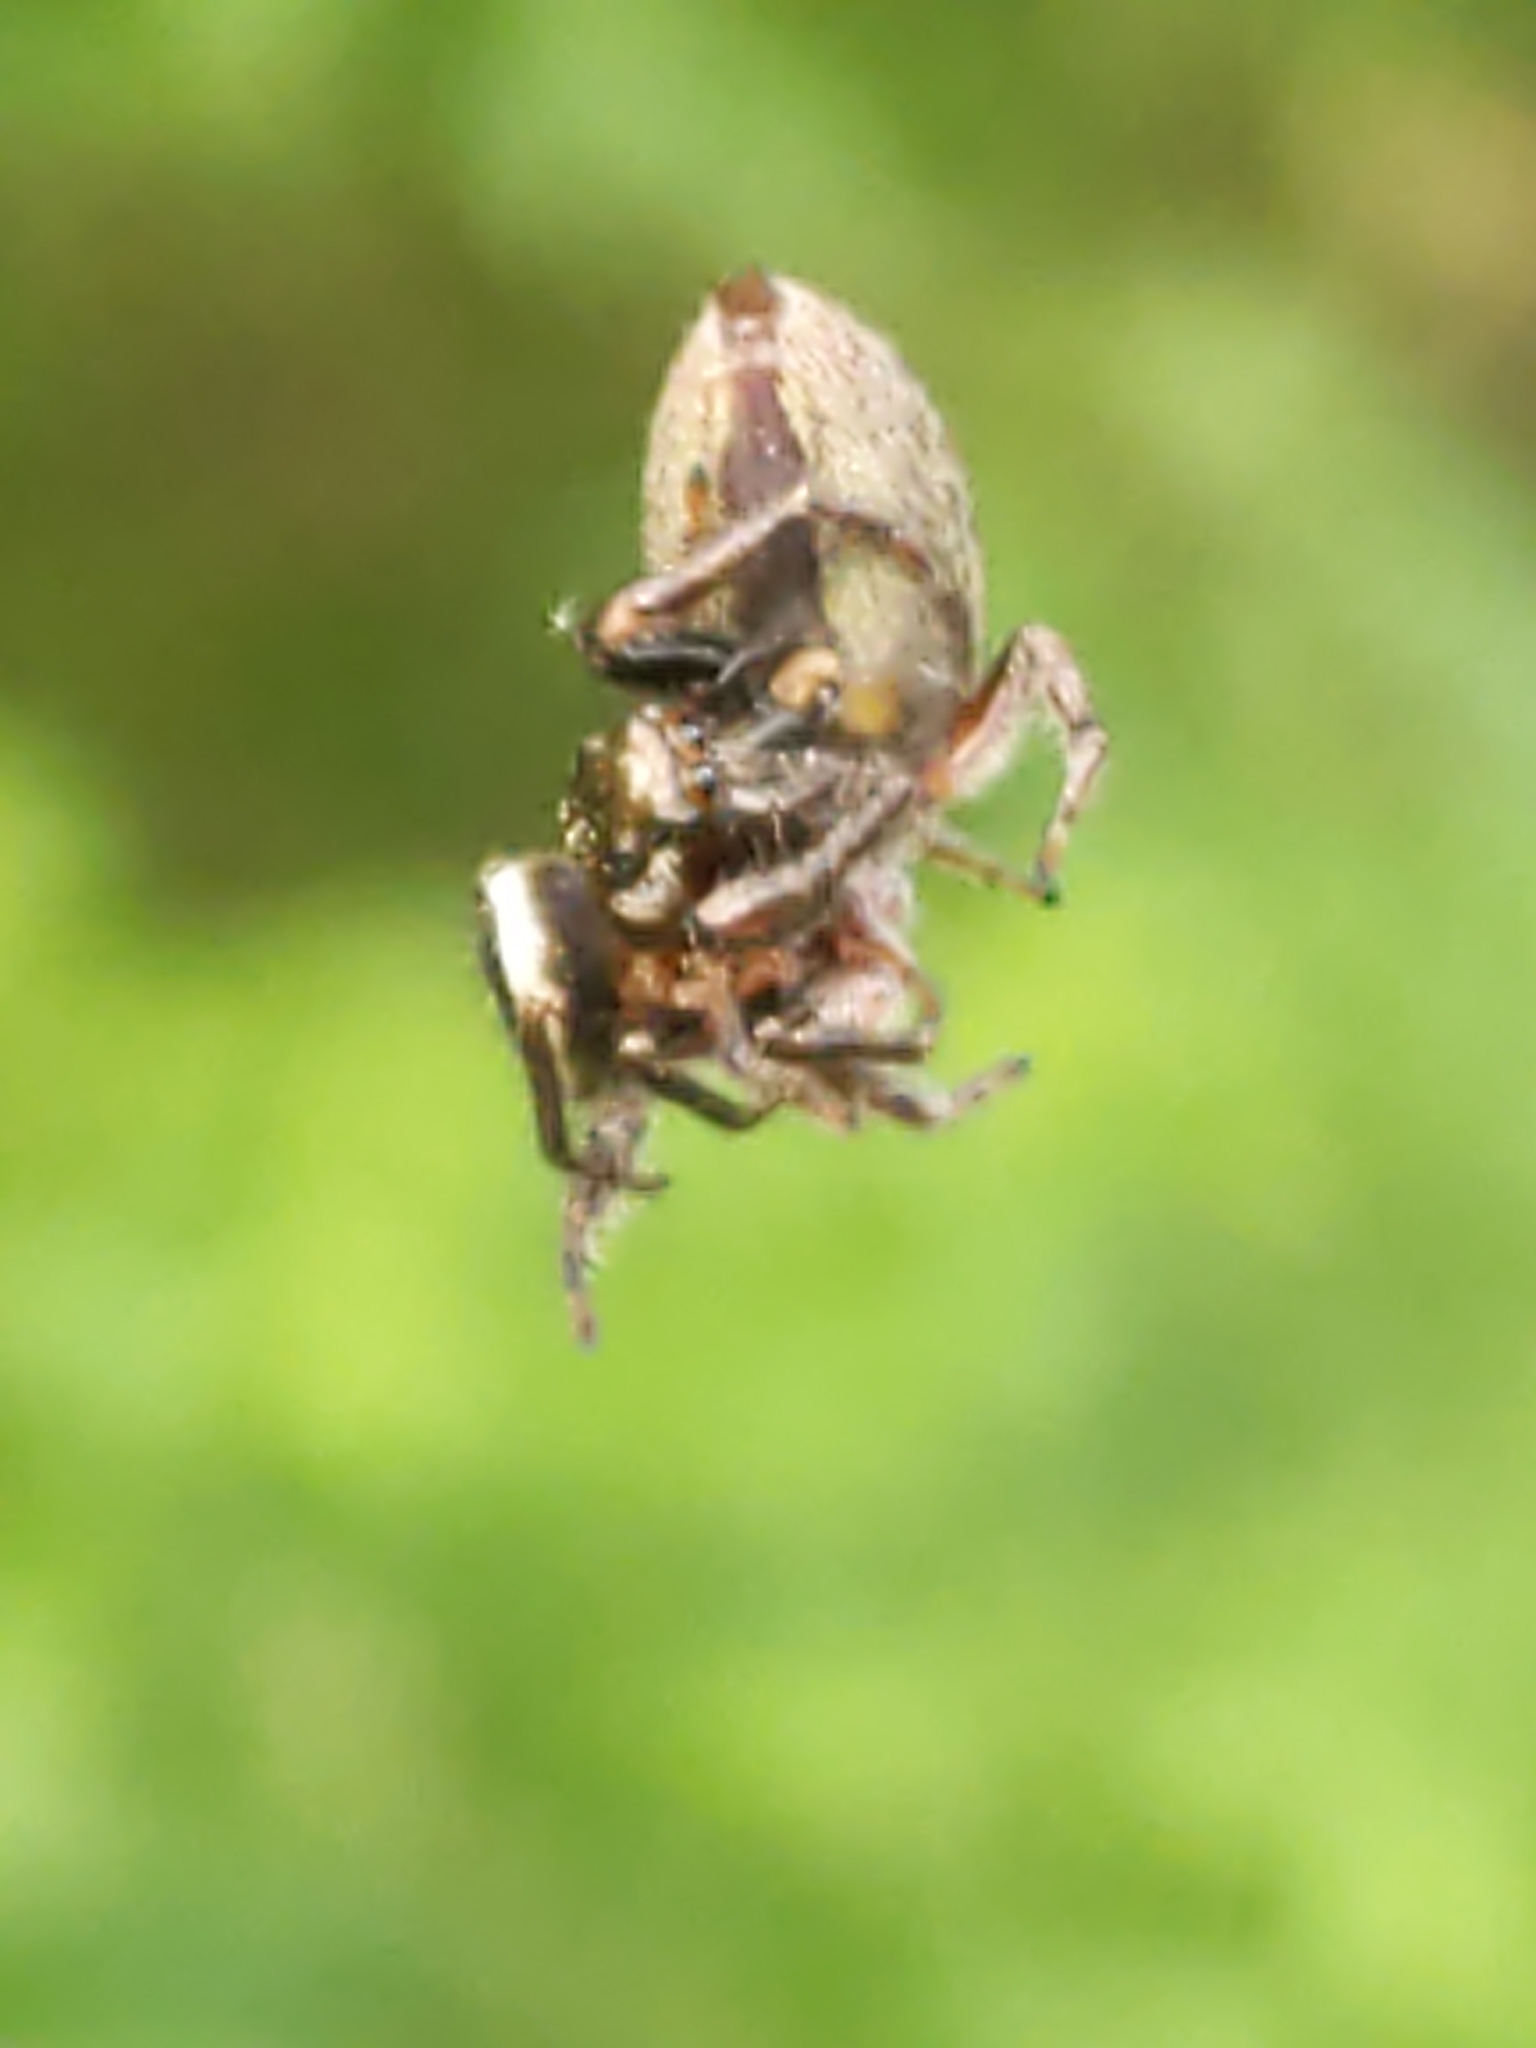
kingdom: Animalia
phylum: Arthropoda
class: Arachnida
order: Araneae
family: Salticidae
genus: Eris
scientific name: Eris militaris
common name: Bronze jumper
